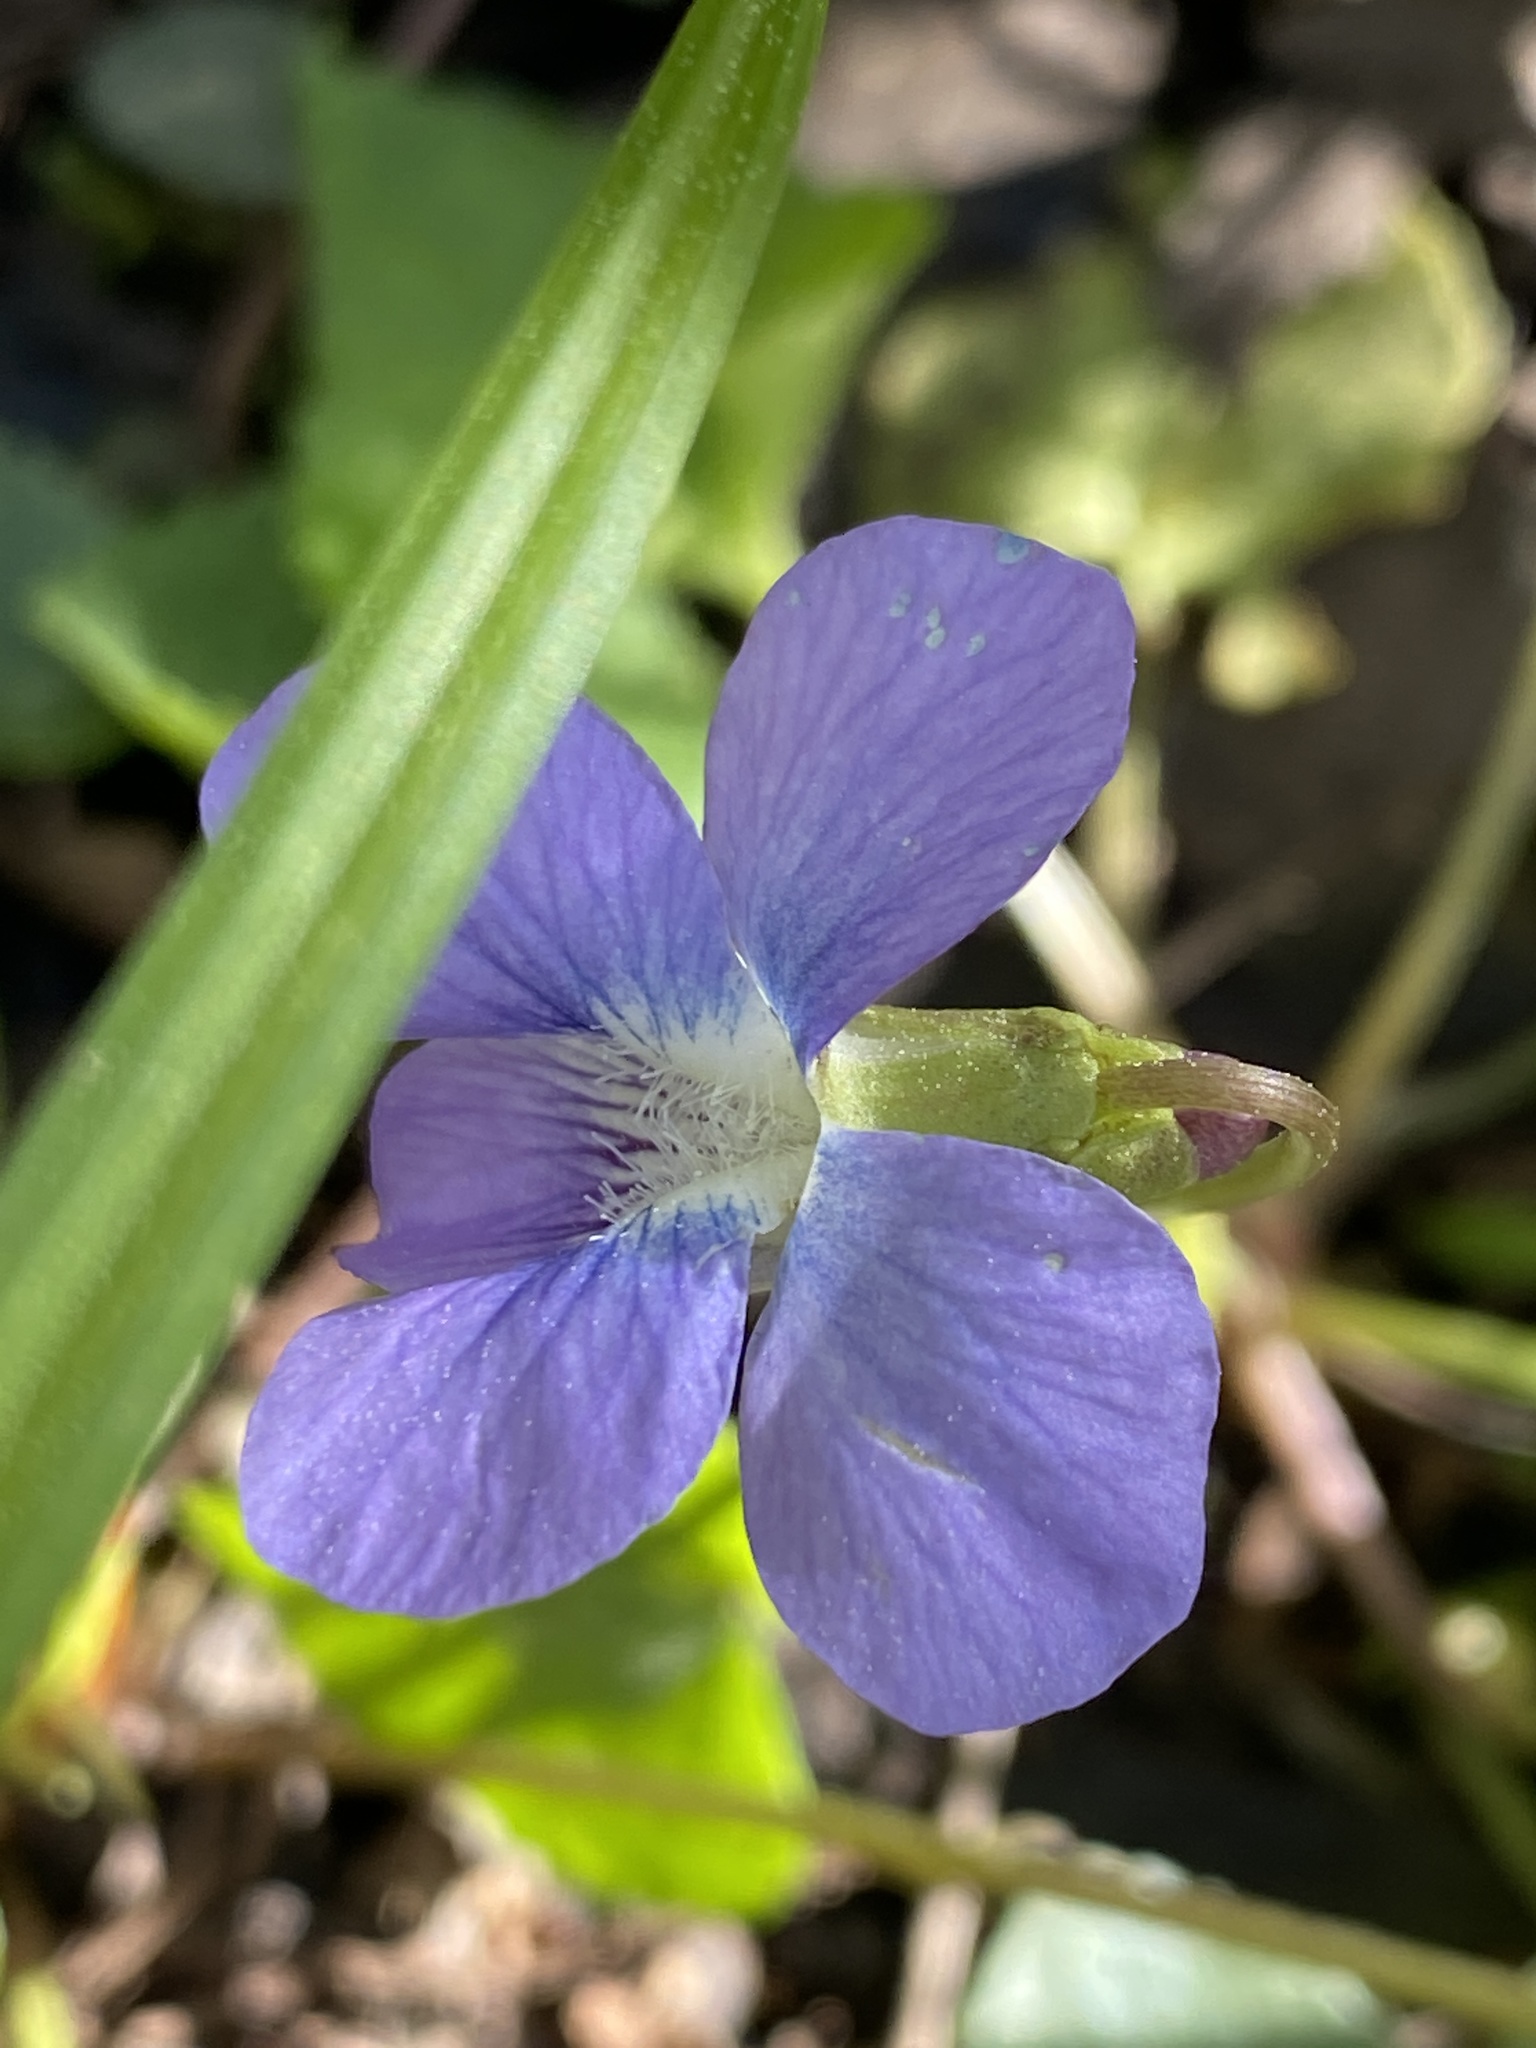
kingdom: Plantae
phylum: Tracheophyta
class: Magnoliopsida
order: Malpighiales
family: Violaceae
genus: Viola
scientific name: Viola sororia
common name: Dooryard violet
